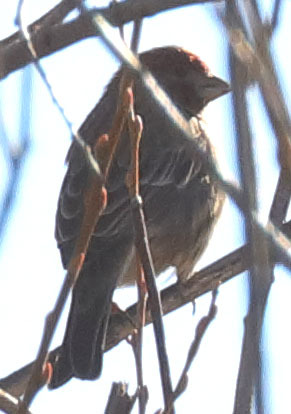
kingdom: Animalia
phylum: Chordata
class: Aves
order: Passeriformes
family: Fringillidae
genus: Haemorhous
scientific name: Haemorhous mexicanus
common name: House finch
